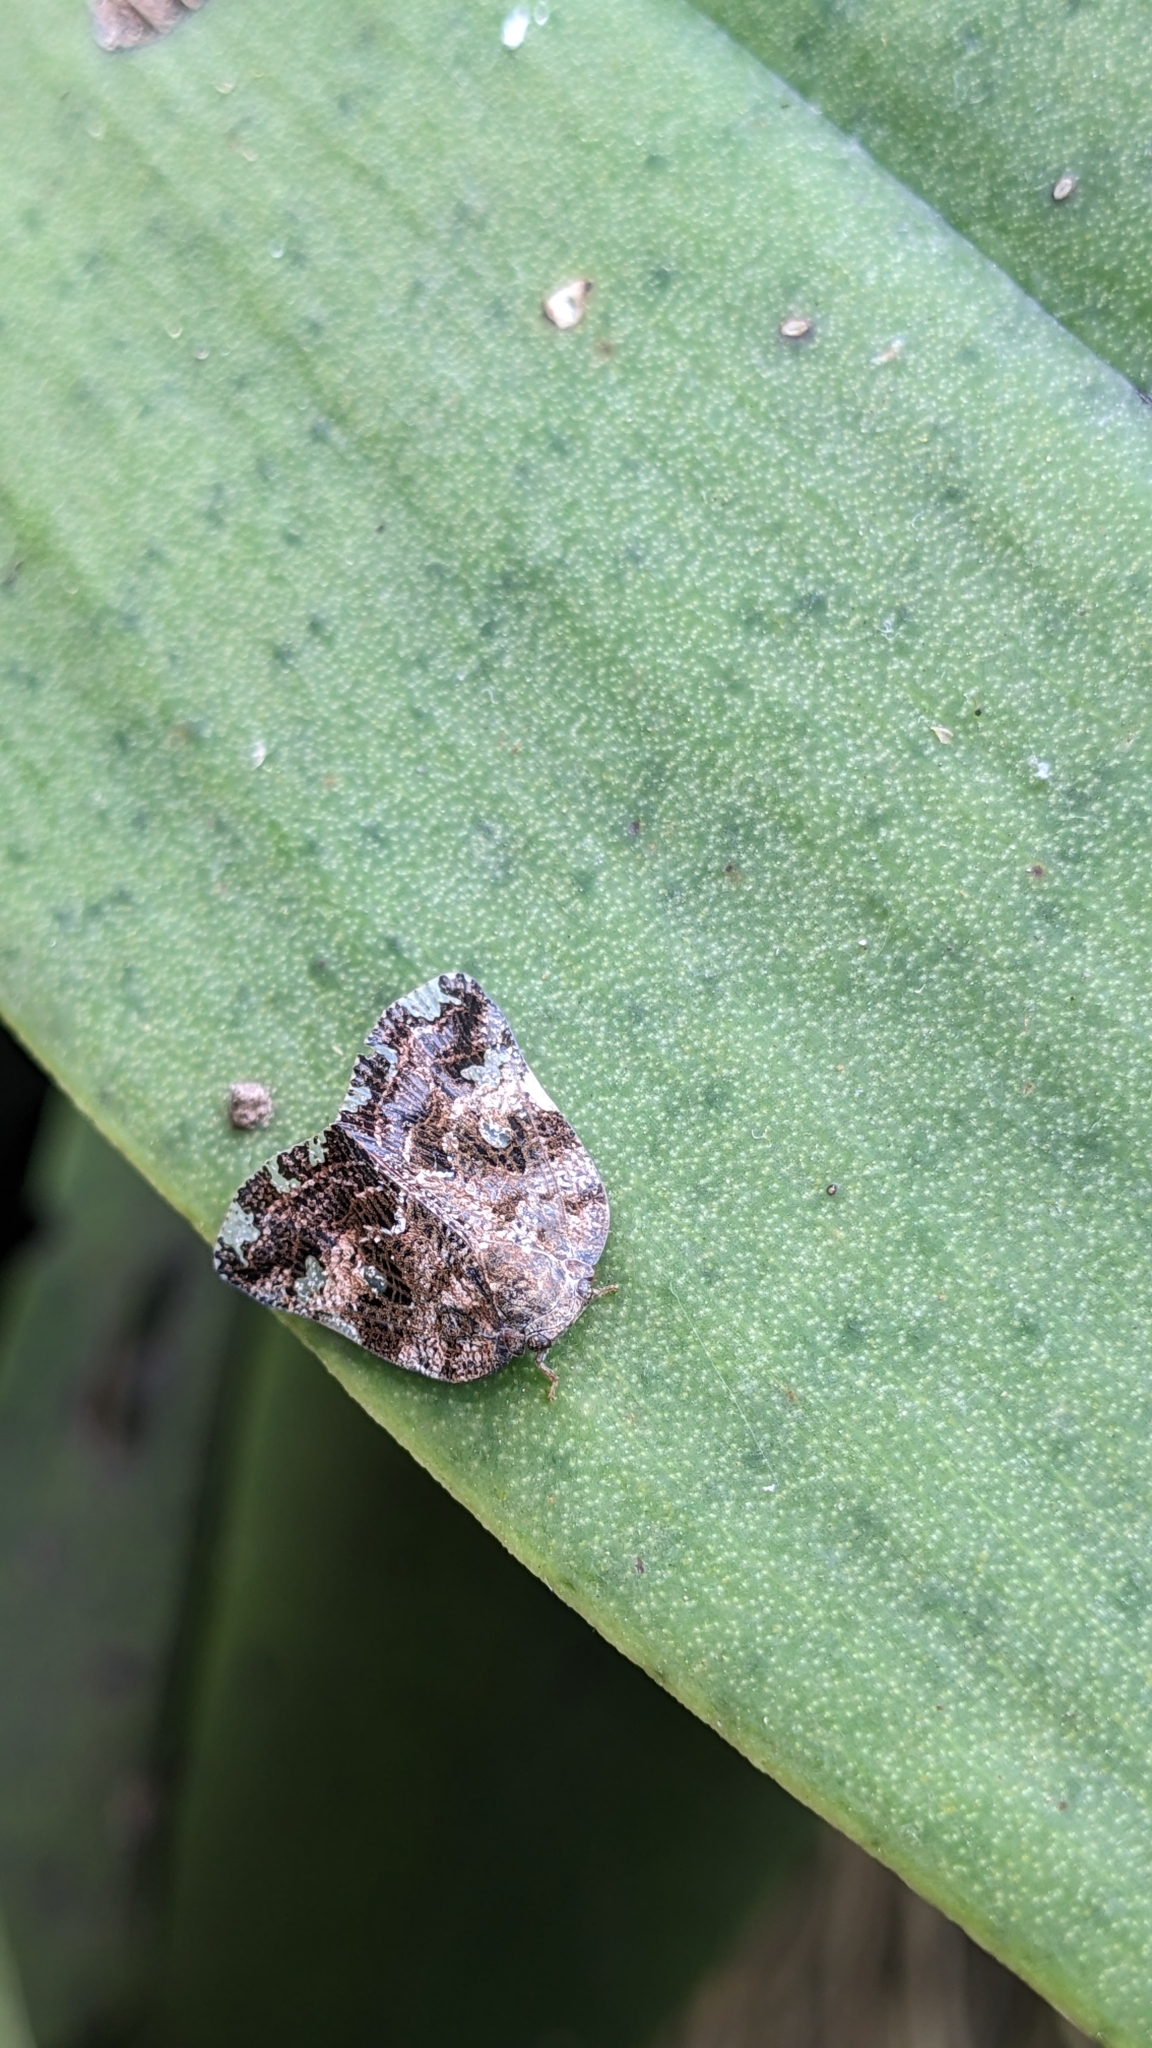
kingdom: Animalia
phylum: Arthropoda
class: Insecta
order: Hemiptera
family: Ricaniidae
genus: Ricania
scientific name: Ricania speculum
